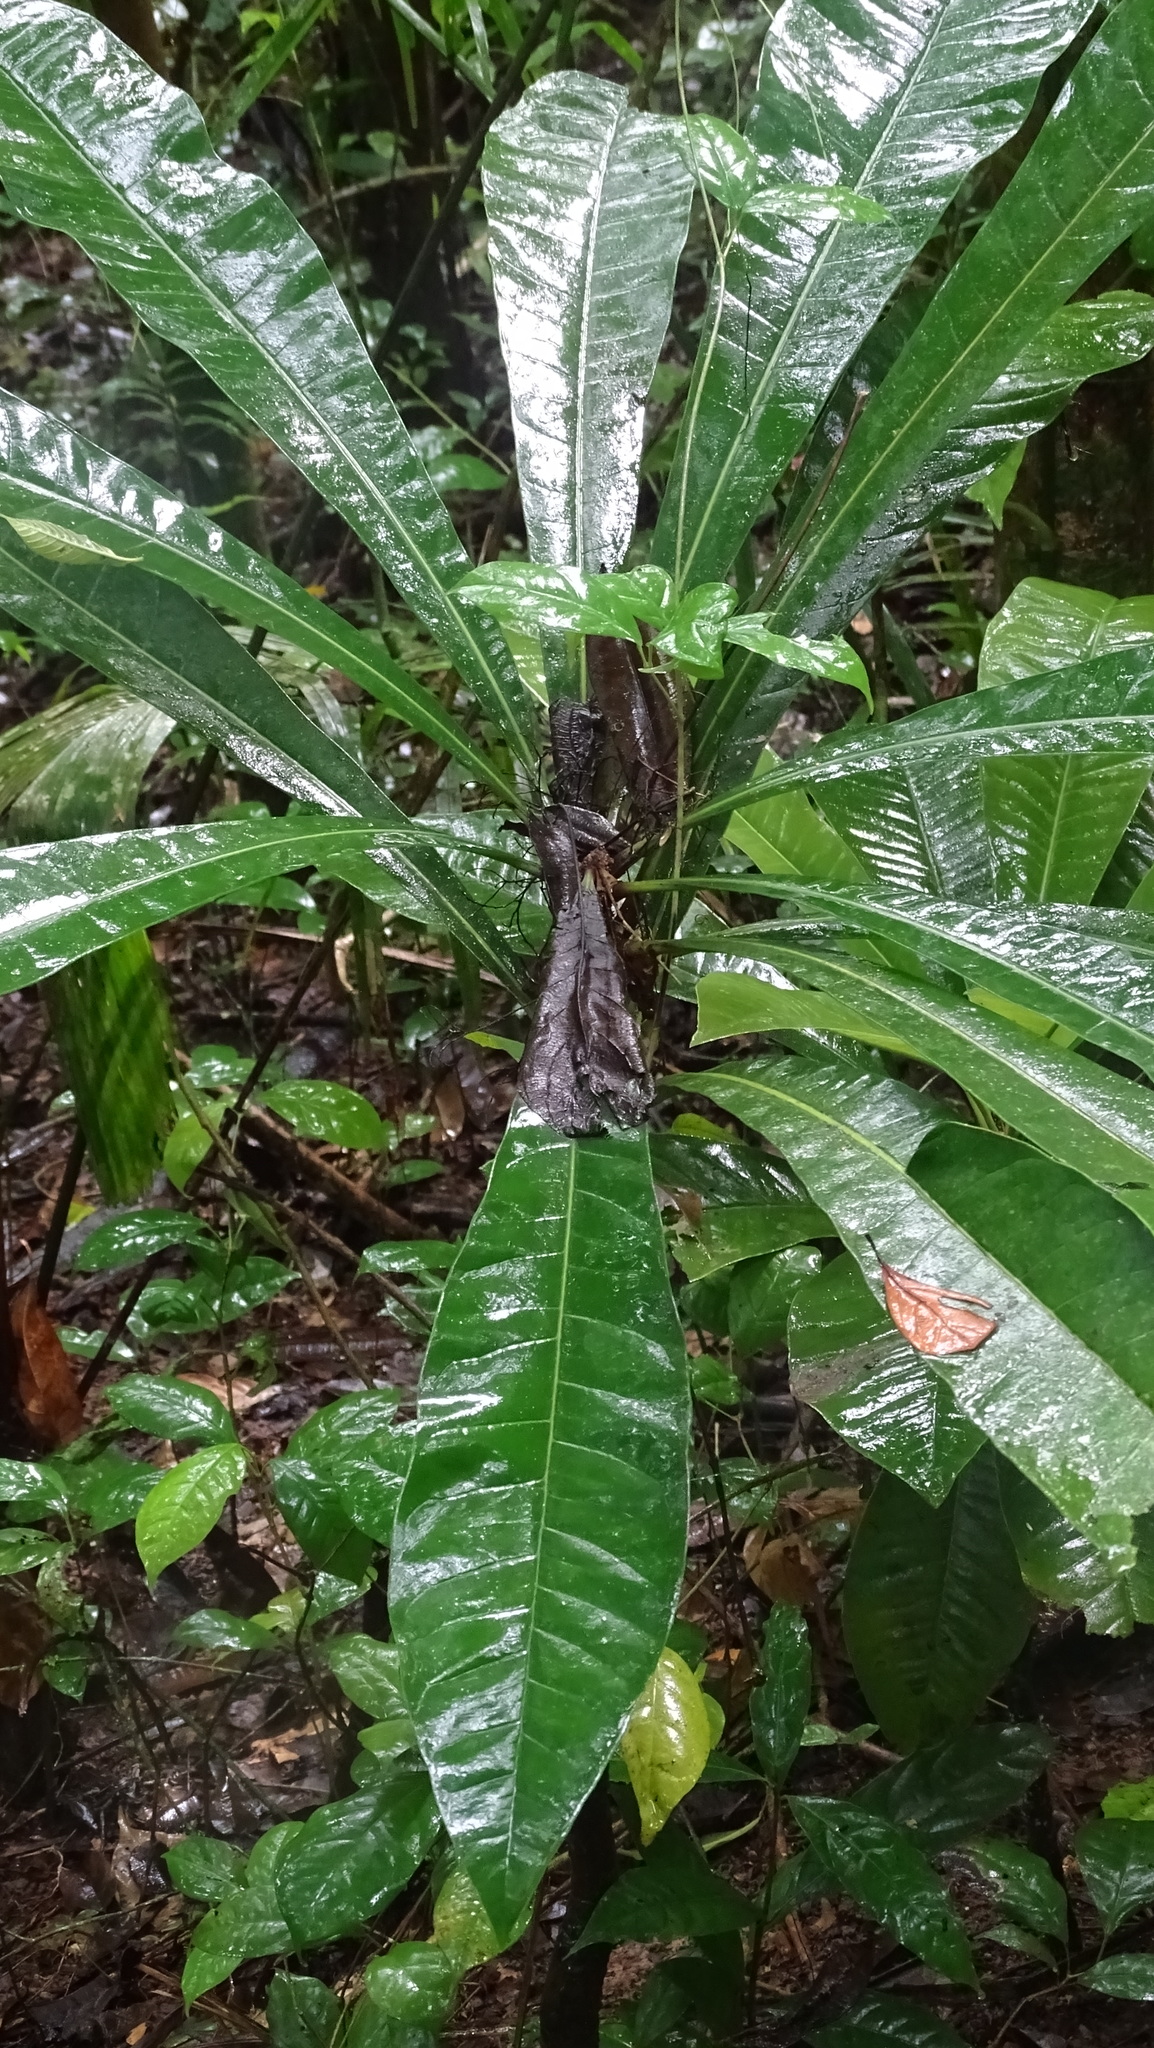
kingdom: Plantae
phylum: Tracheophyta
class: Magnoliopsida
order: Ericales
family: Lecythidaceae
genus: Gustavia
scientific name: Gustavia superba
